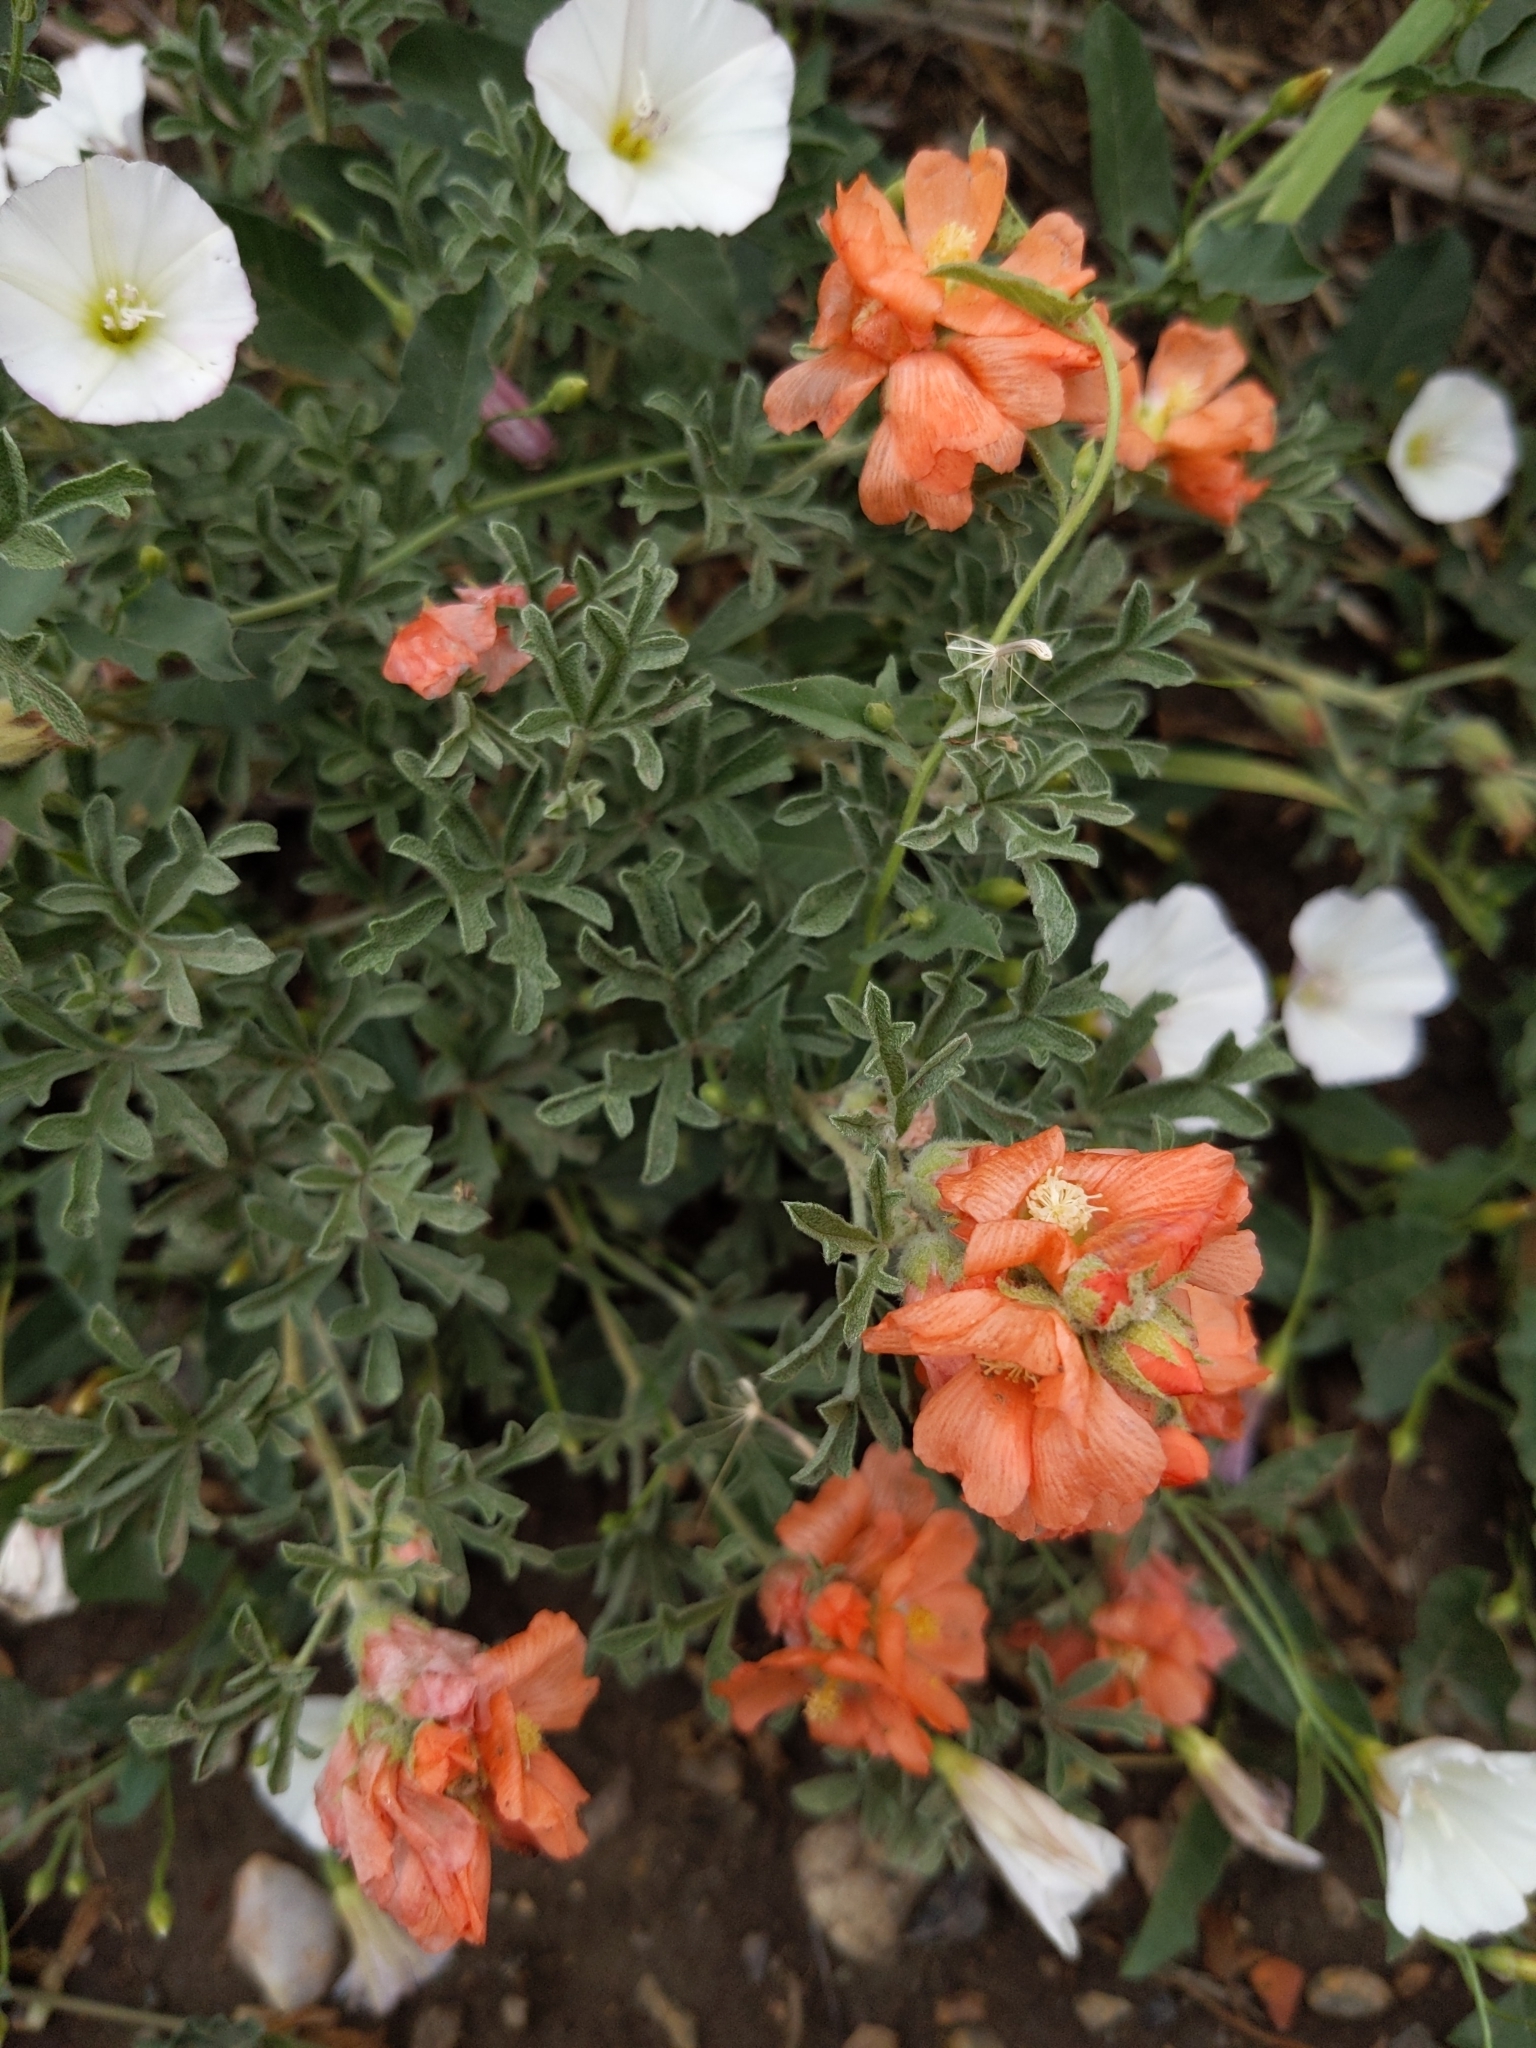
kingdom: Plantae
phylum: Tracheophyta
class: Magnoliopsida
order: Malvales
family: Malvaceae
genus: Sphaeralcea
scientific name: Sphaeralcea coccinea
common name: Moss-rose
